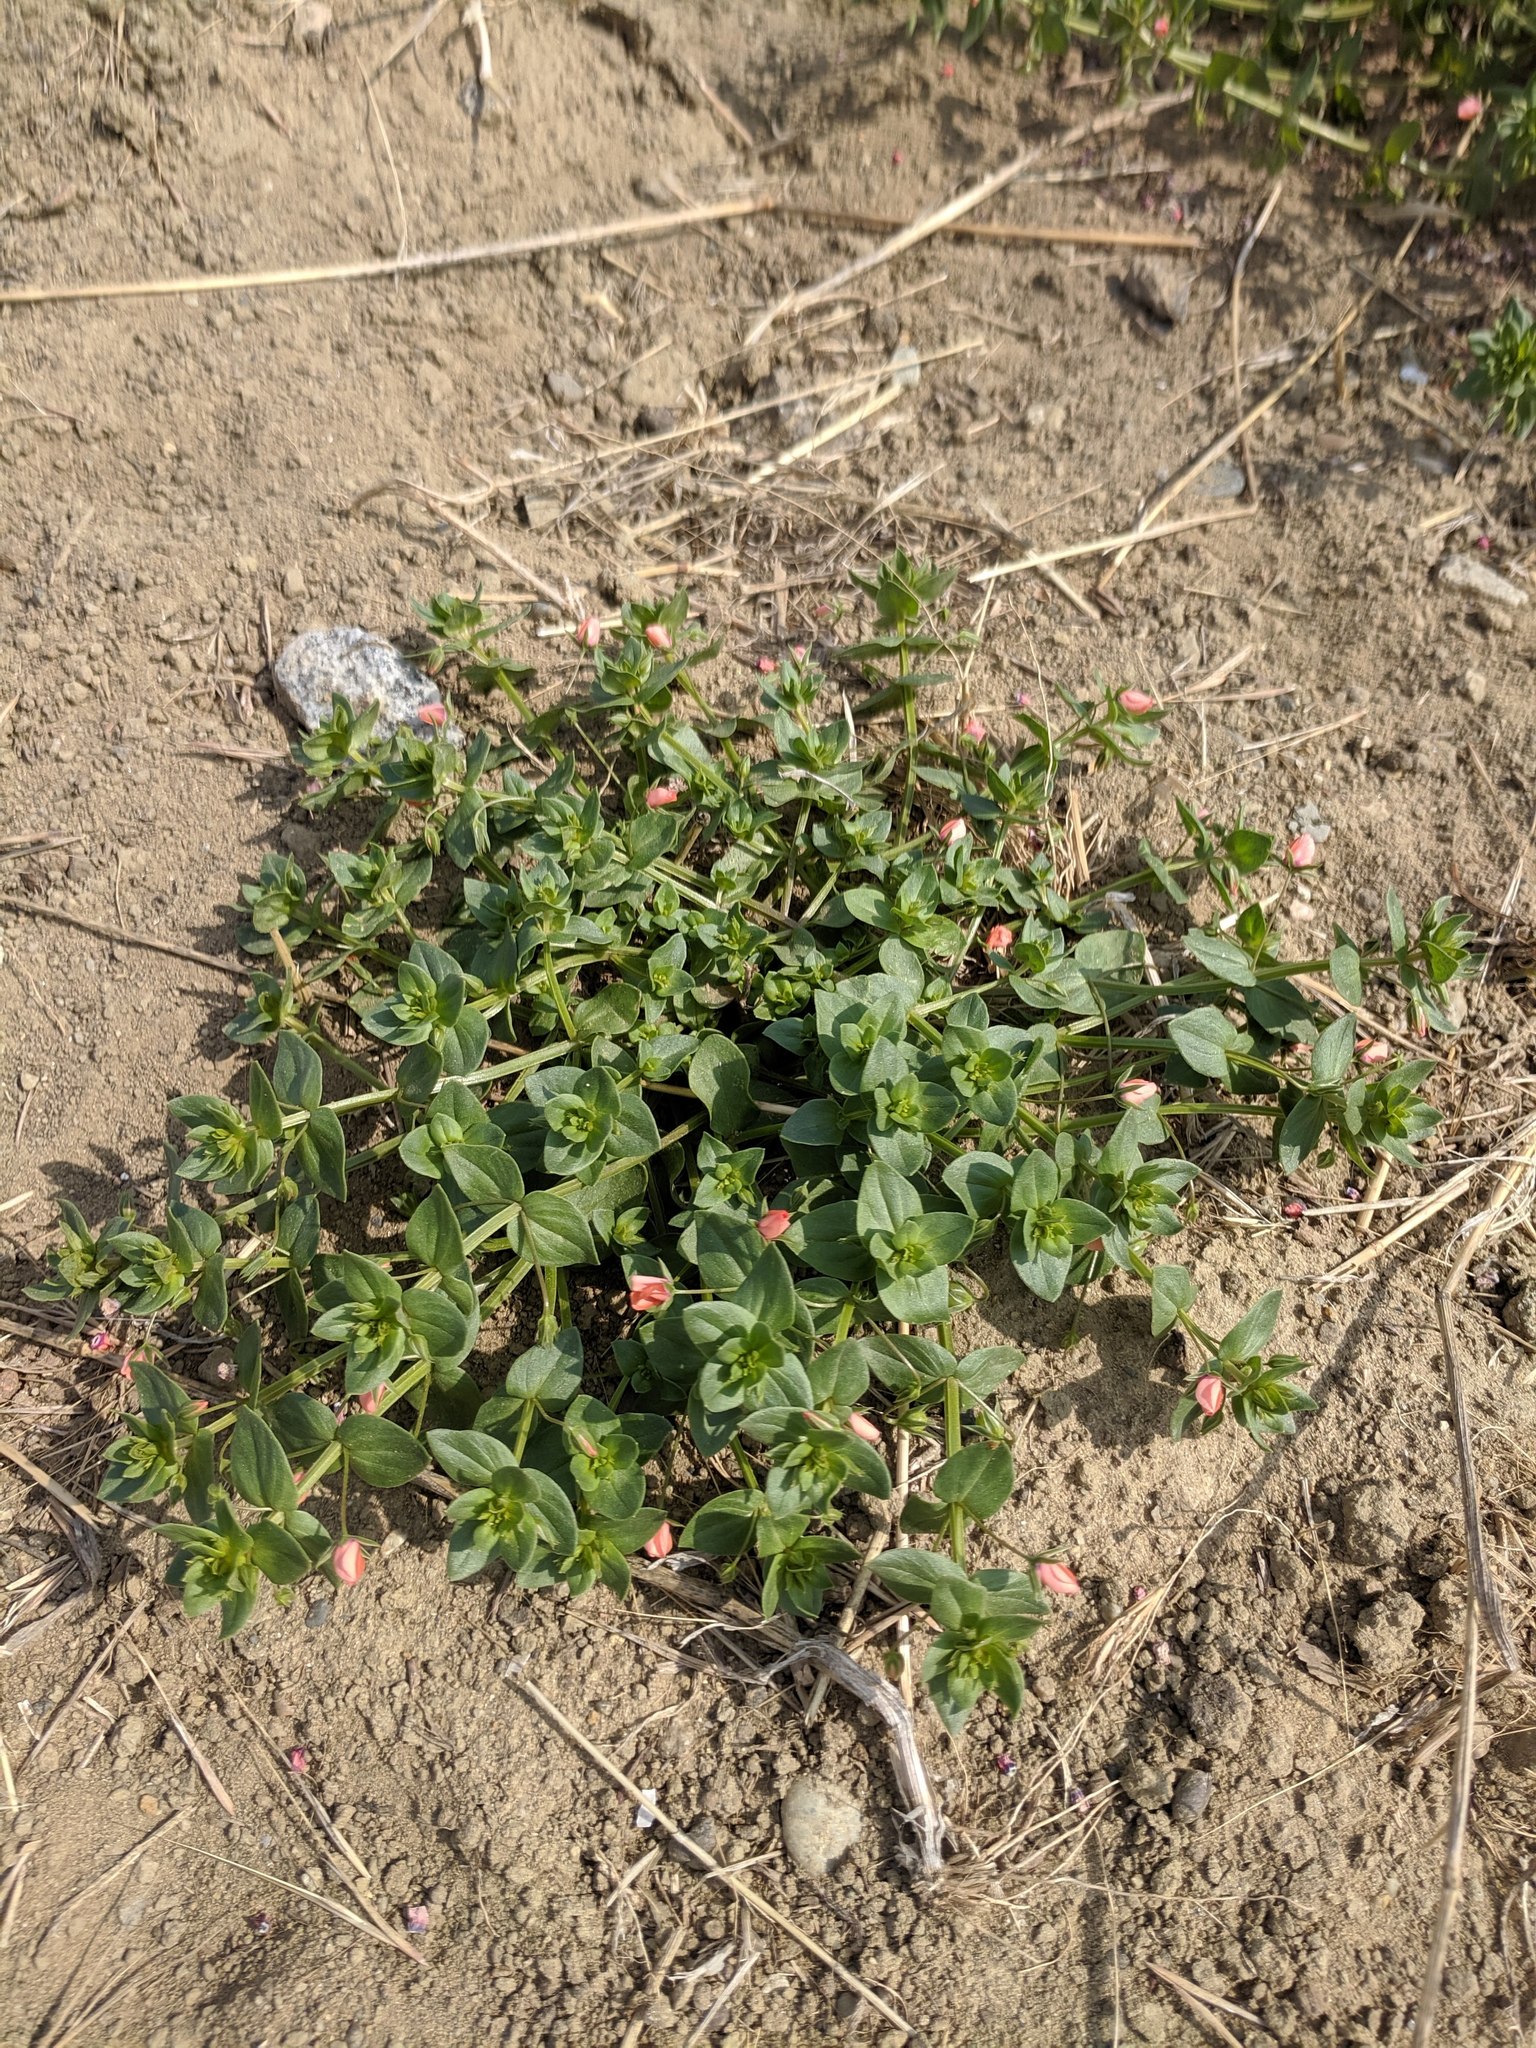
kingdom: Plantae
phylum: Tracheophyta
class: Magnoliopsida
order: Ericales
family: Primulaceae
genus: Lysimachia
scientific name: Lysimachia arvensis
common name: Scarlet pimpernel
